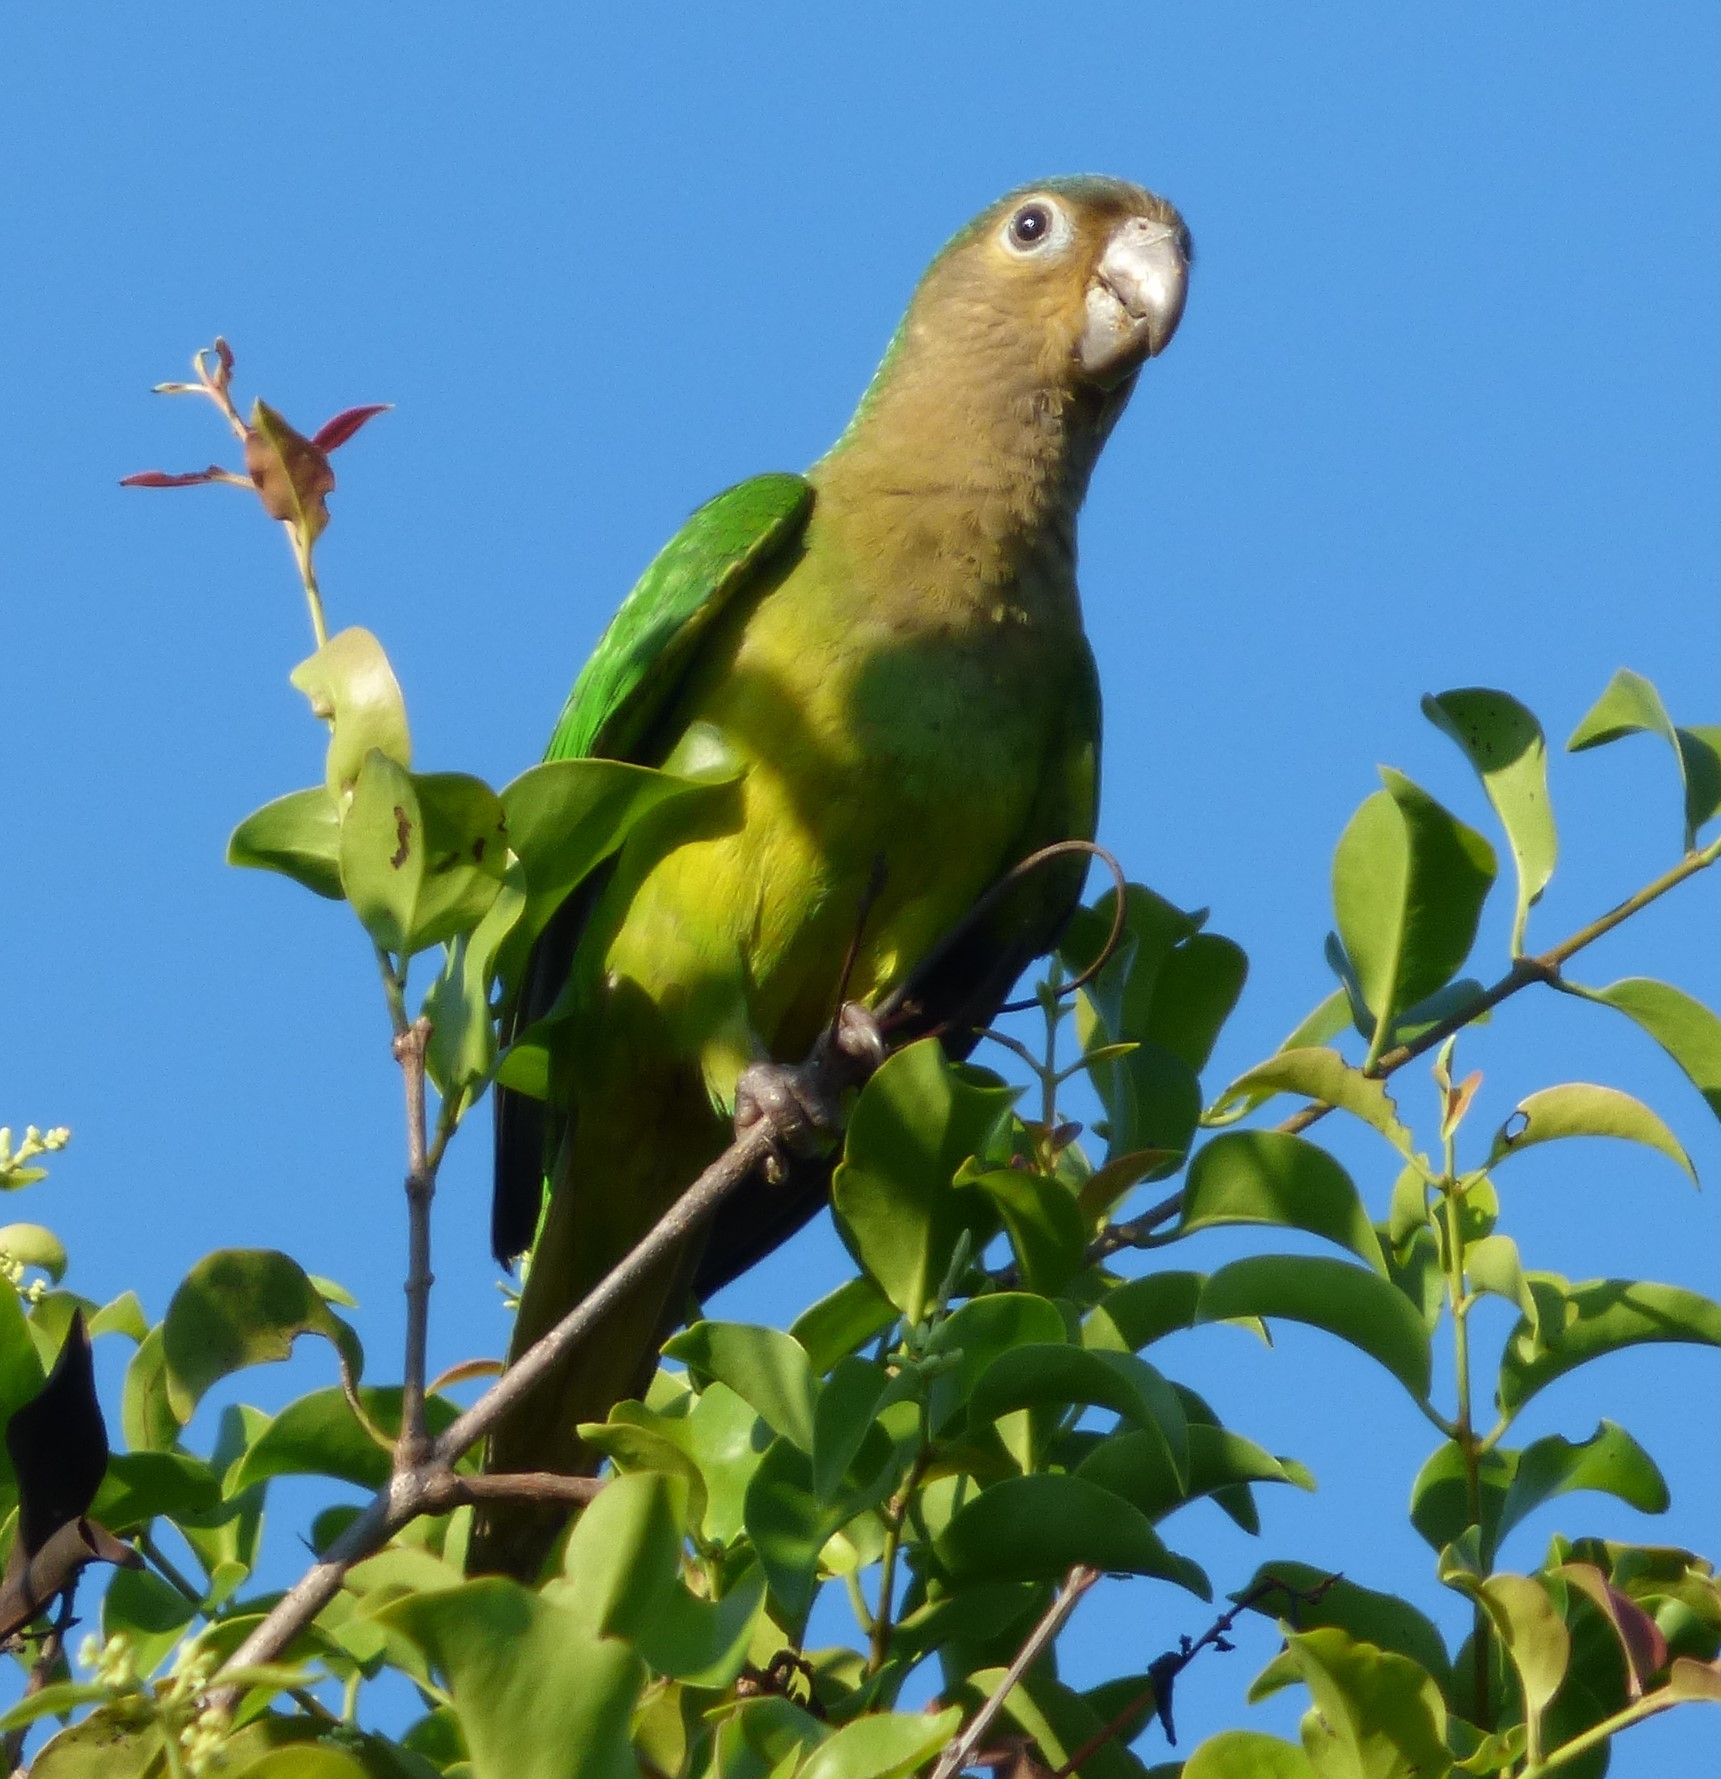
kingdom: Animalia
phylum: Chordata
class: Aves
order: Psittaciformes
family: Psittacidae
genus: Aratinga
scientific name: Aratinga pertinax
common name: Brown-throated parakeet
